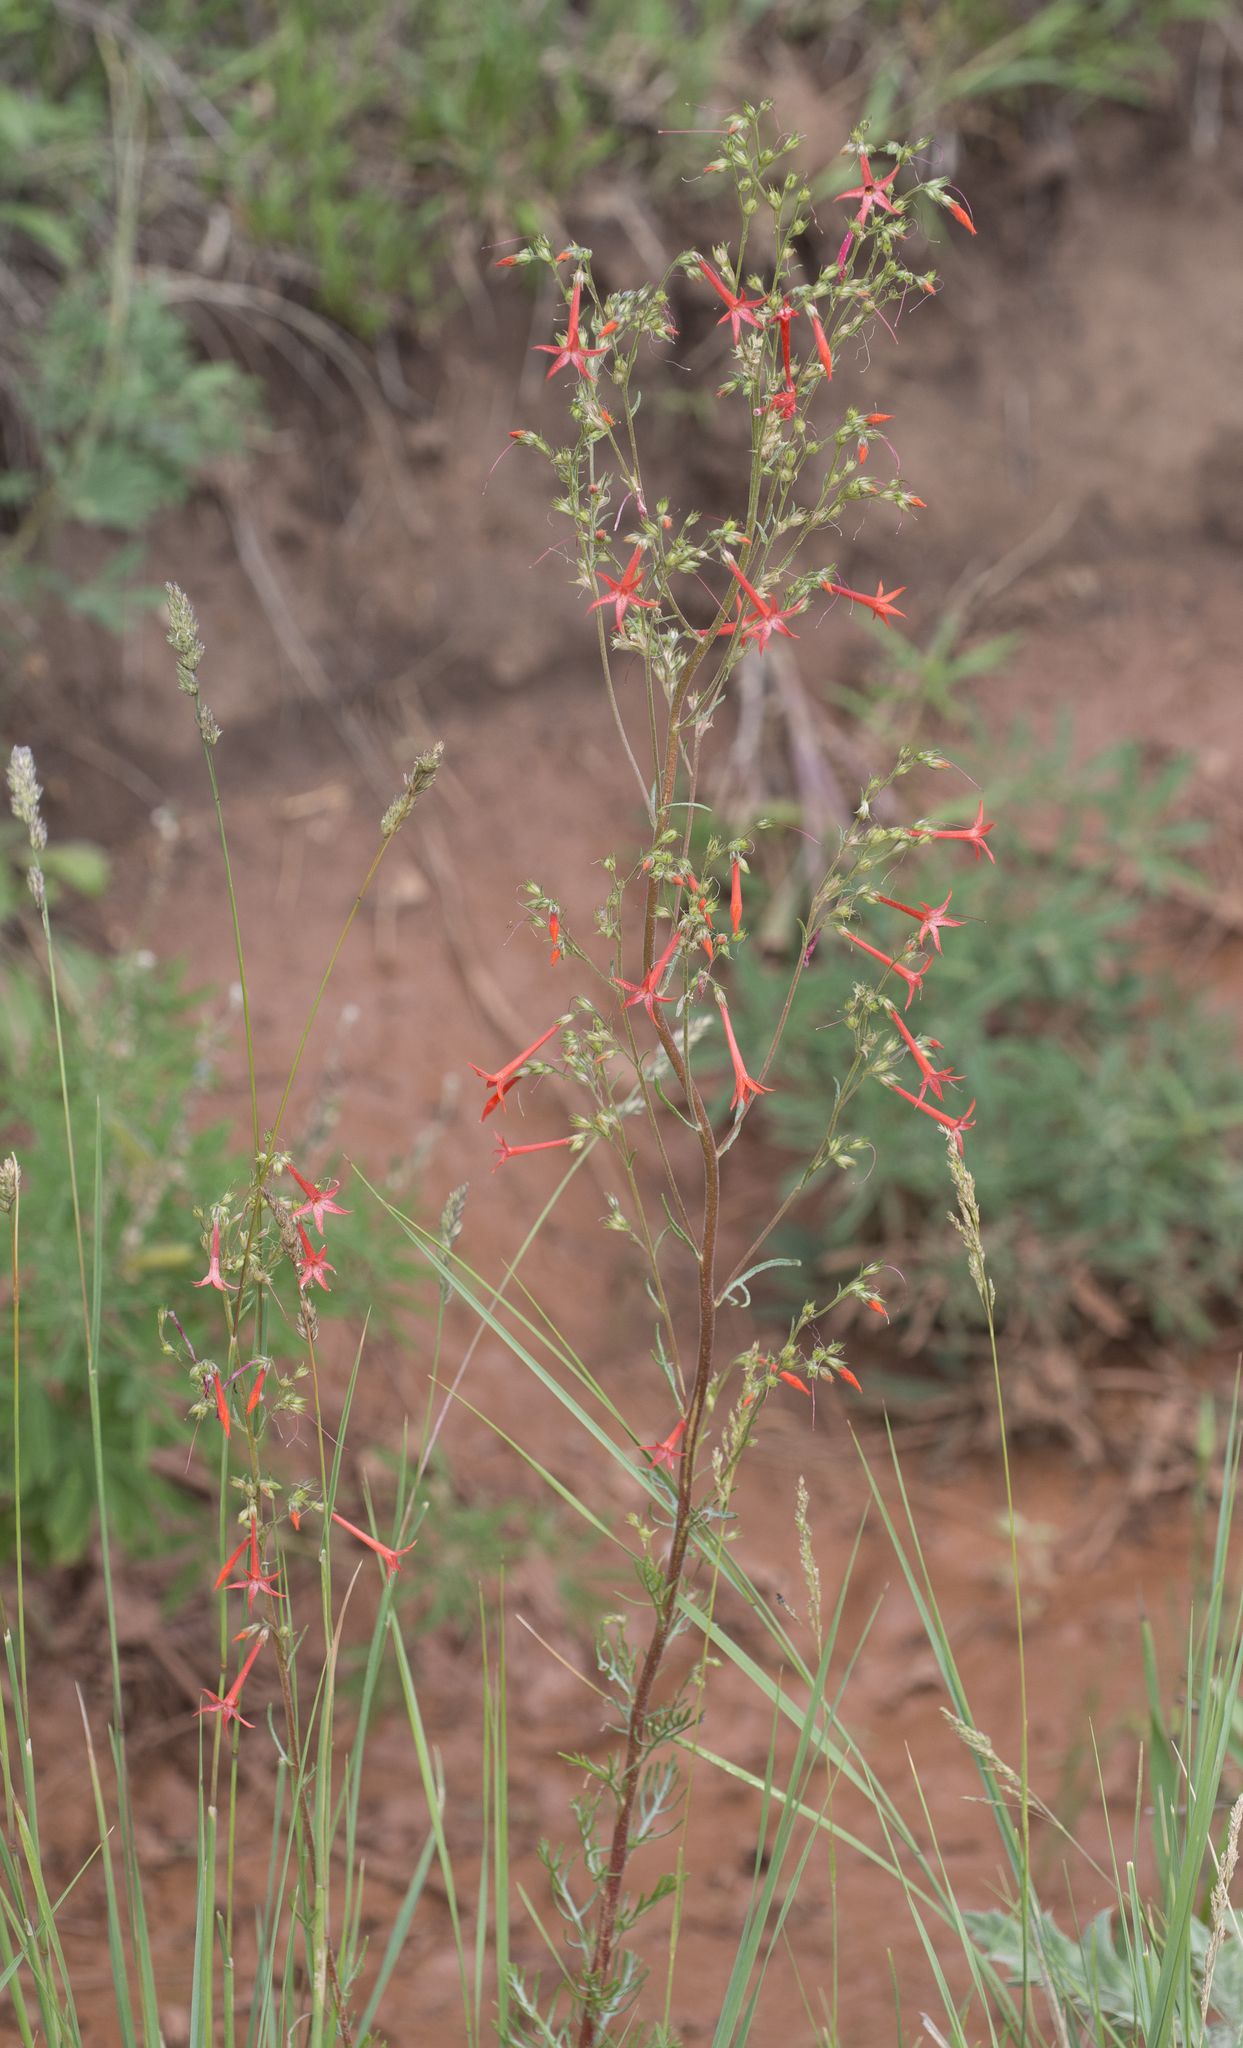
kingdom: Plantae
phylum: Tracheophyta
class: Magnoliopsida
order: Ericales
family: Polemoniaceae
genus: Ipomopsis
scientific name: Ipomopsis aggregata
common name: Scarlet gilia
